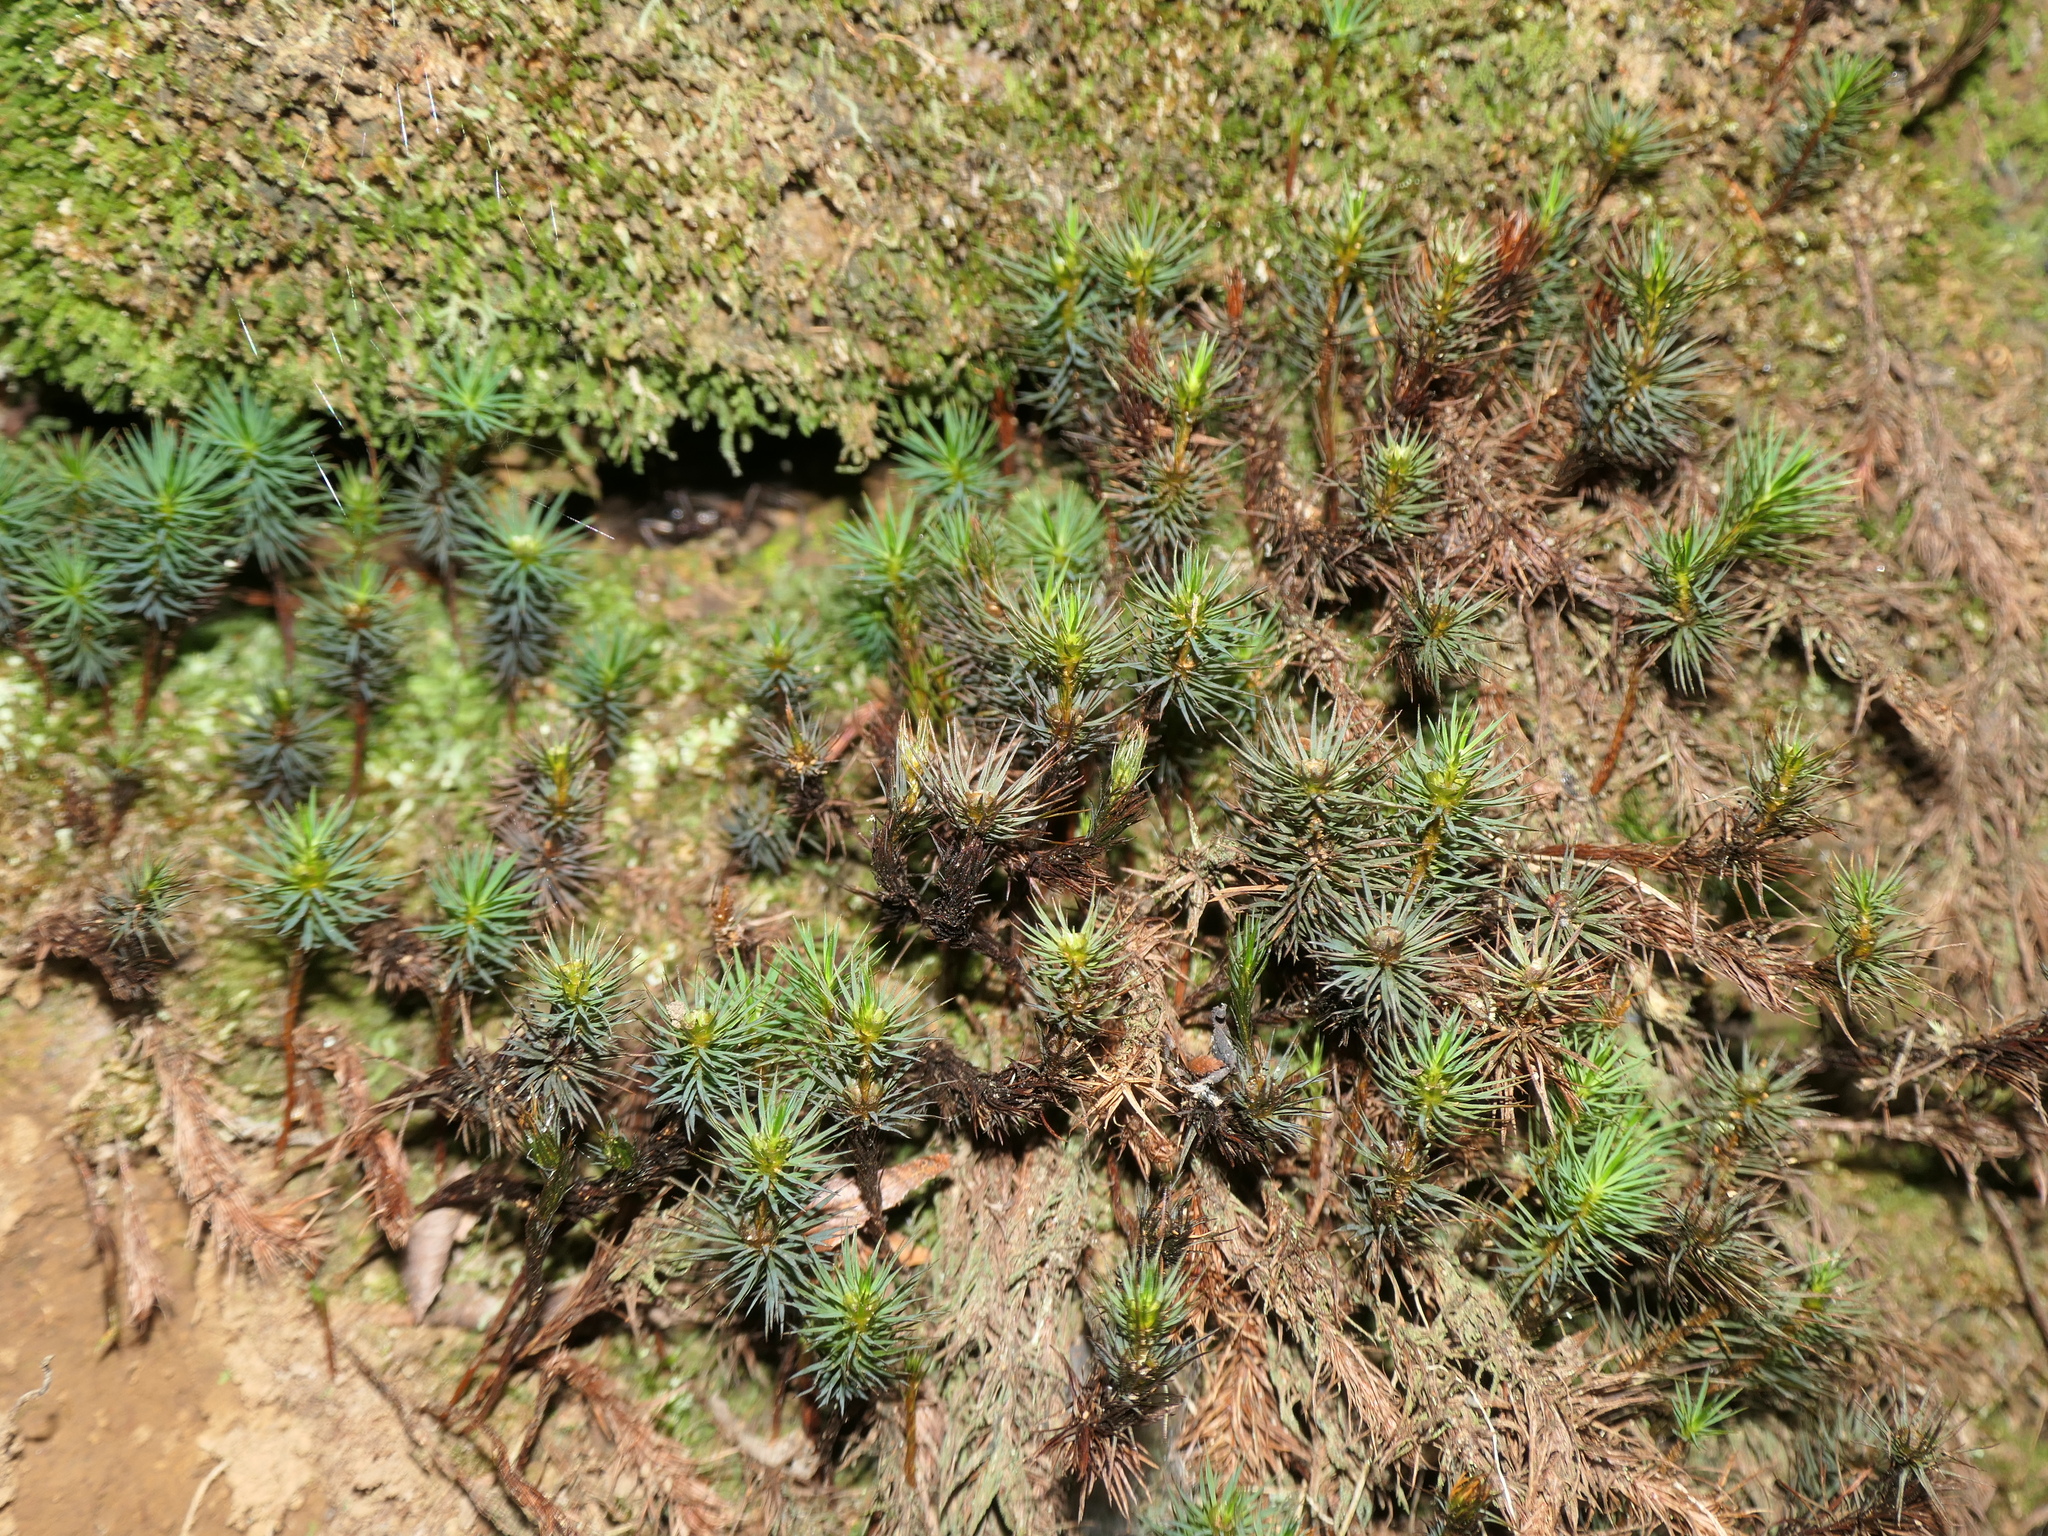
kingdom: Plantae
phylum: Bryophyta
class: Polytrichopsida
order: Polytrichales
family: Polytrichaceae
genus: Dawsonia
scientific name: Dawsonia polytrichoides
